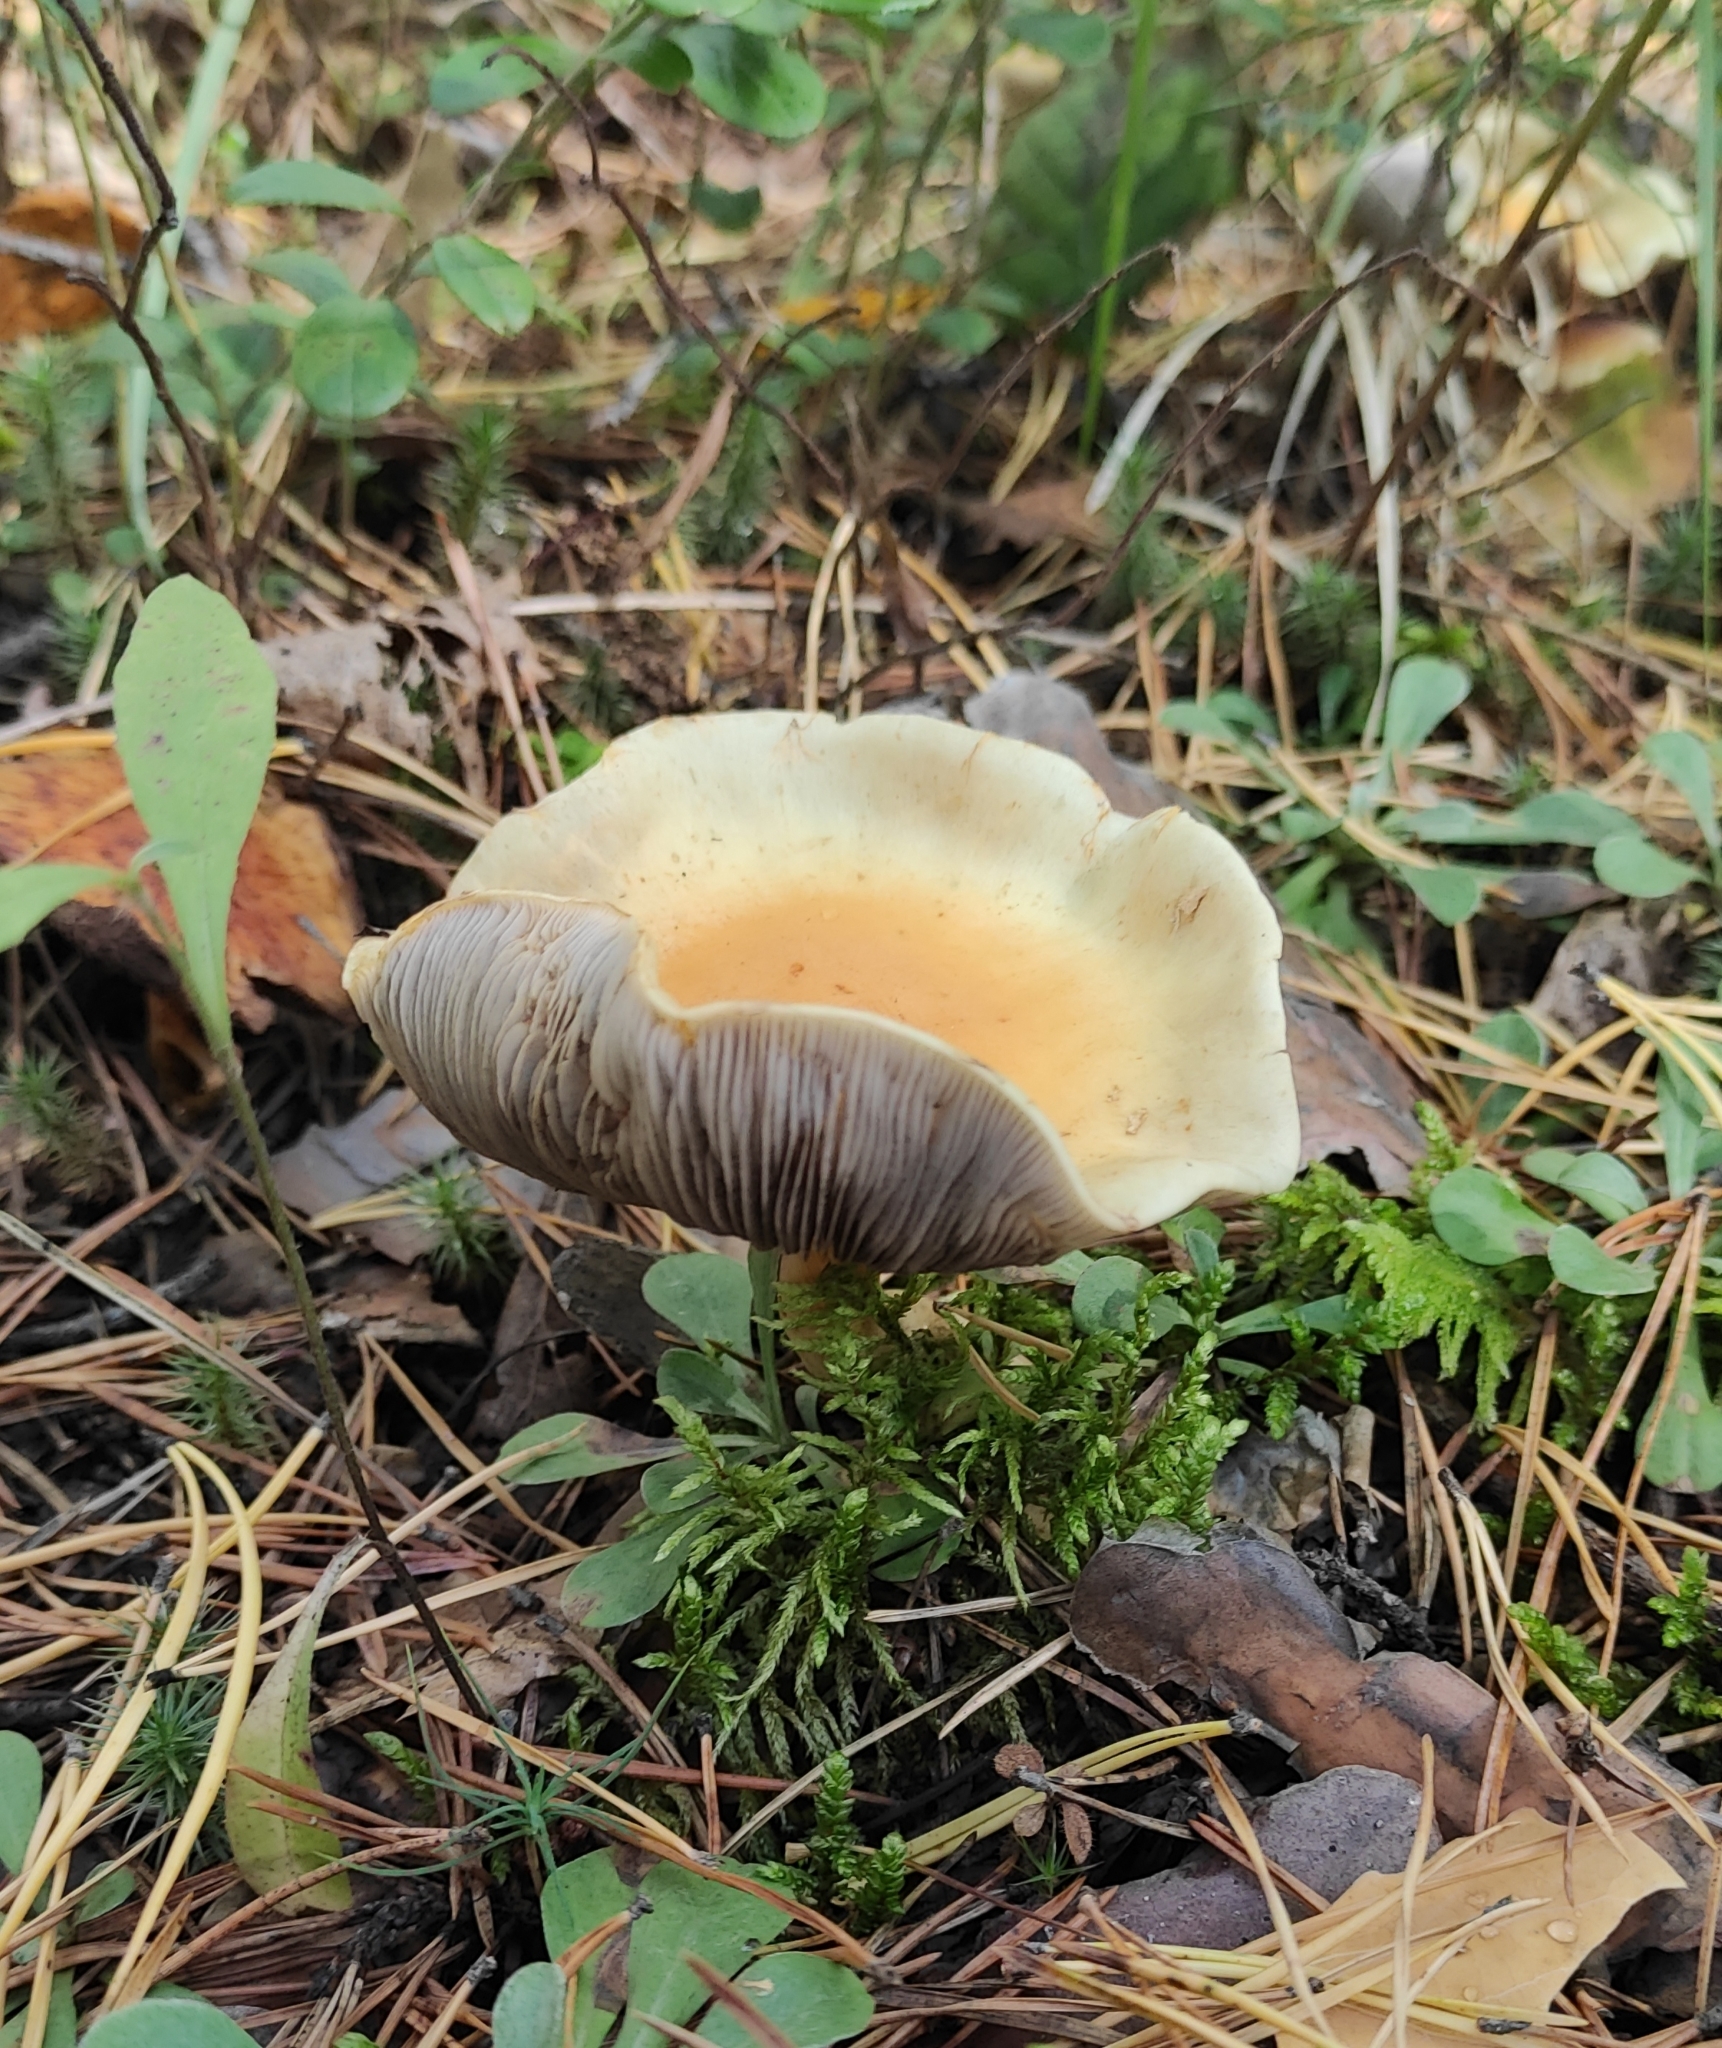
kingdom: Fungi
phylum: Basidiomycota
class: Agaricomycetes
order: Agaricales
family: Strophariaceae
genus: Hypholoma
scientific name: Hypholoma capnoides
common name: Conifer tuft
